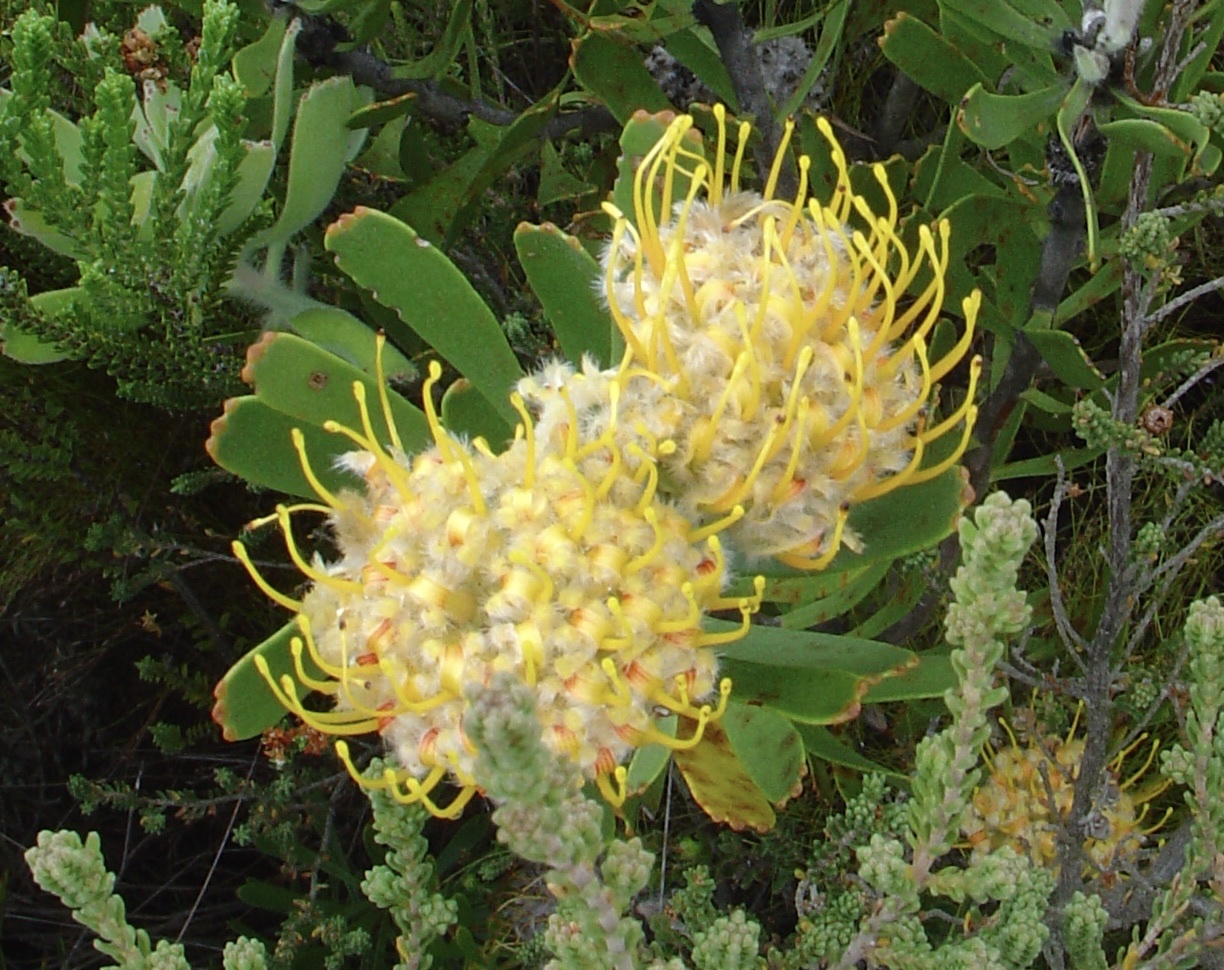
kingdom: Plantae
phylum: Tracheophyta
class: Magnoliopsida
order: Proteales
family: Proteaceae
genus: Leucospermum
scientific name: Leucospermum cuneiforme
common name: Common pincushion
